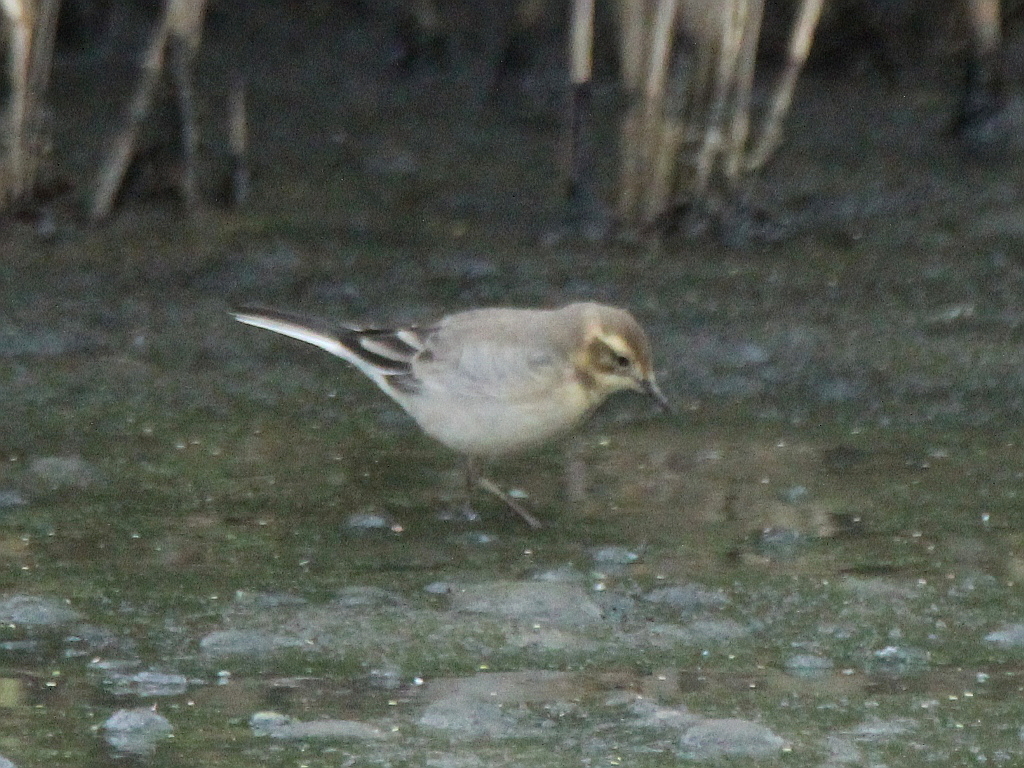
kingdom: Animalia
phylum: Chordata
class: Aves
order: Passeriformes
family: Motacillidae
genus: Motacilla
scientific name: Motacilla citreola
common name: Citrine wagtail
